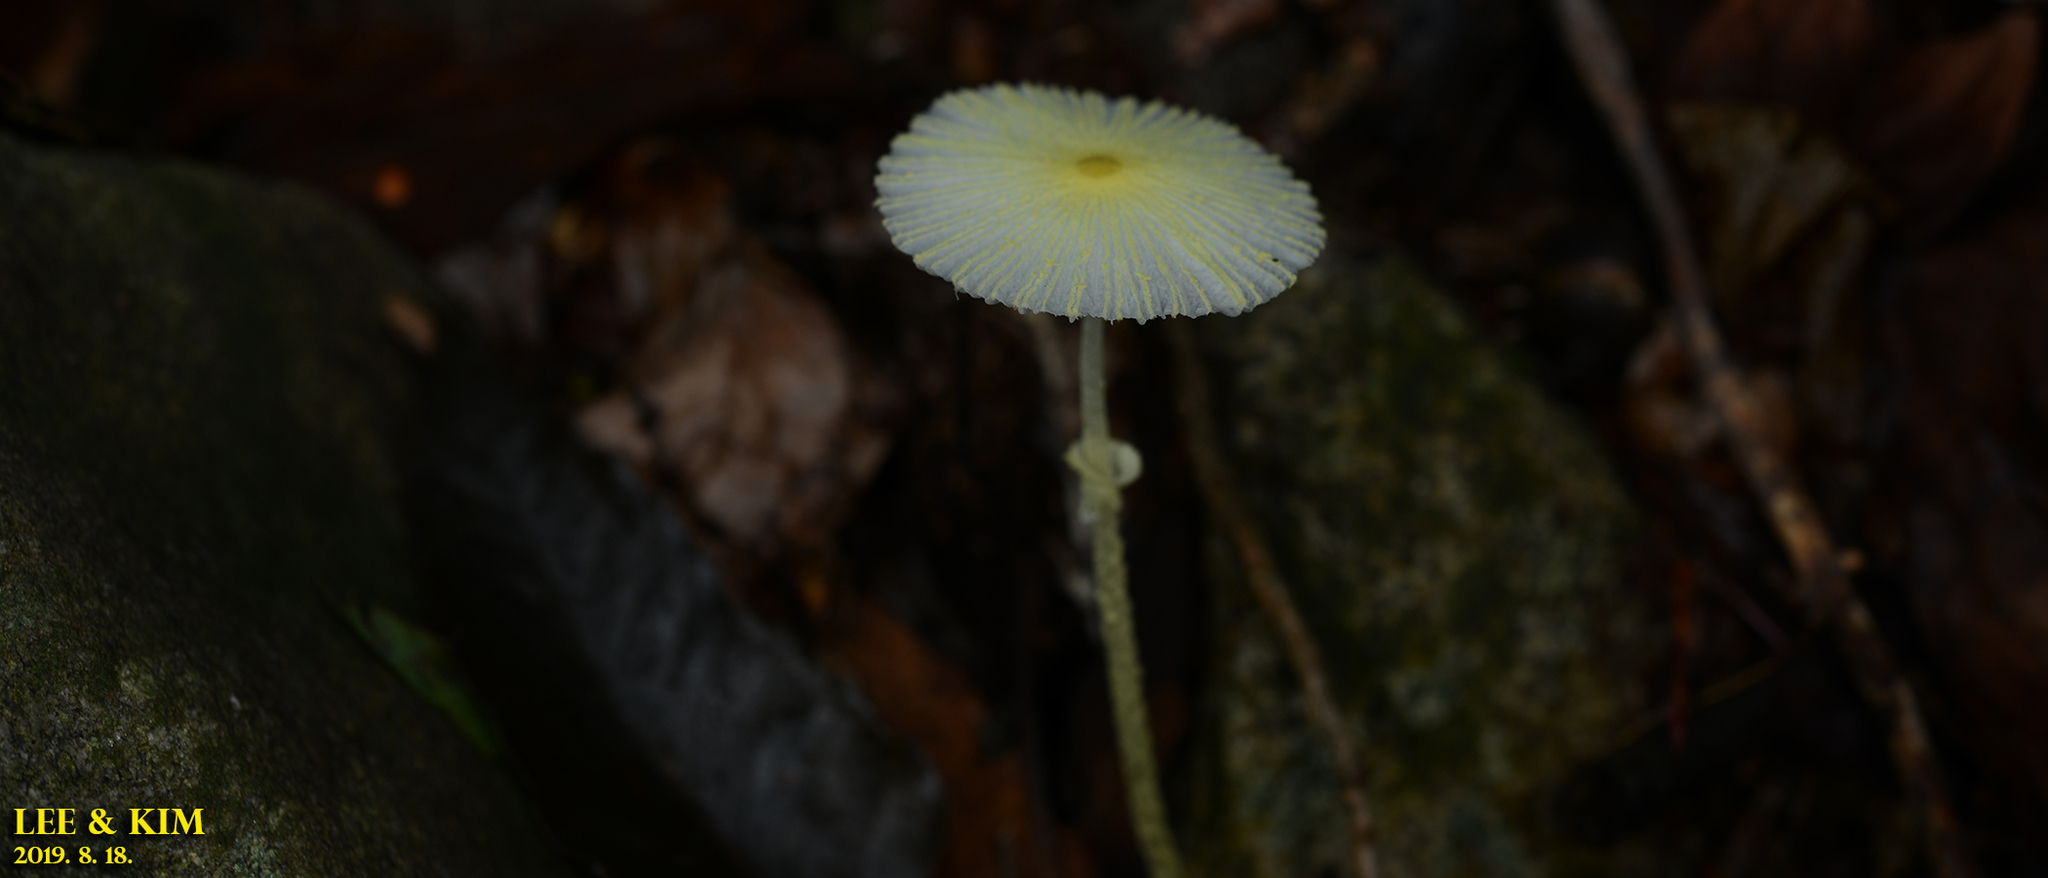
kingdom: Fungi
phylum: Basidiomycota
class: Agaricomycetes
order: Agaricales
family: Agaricaceae
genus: Leucocoprinus
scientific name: Leucocoprinus fragilissimus
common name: Fragile dapperling
